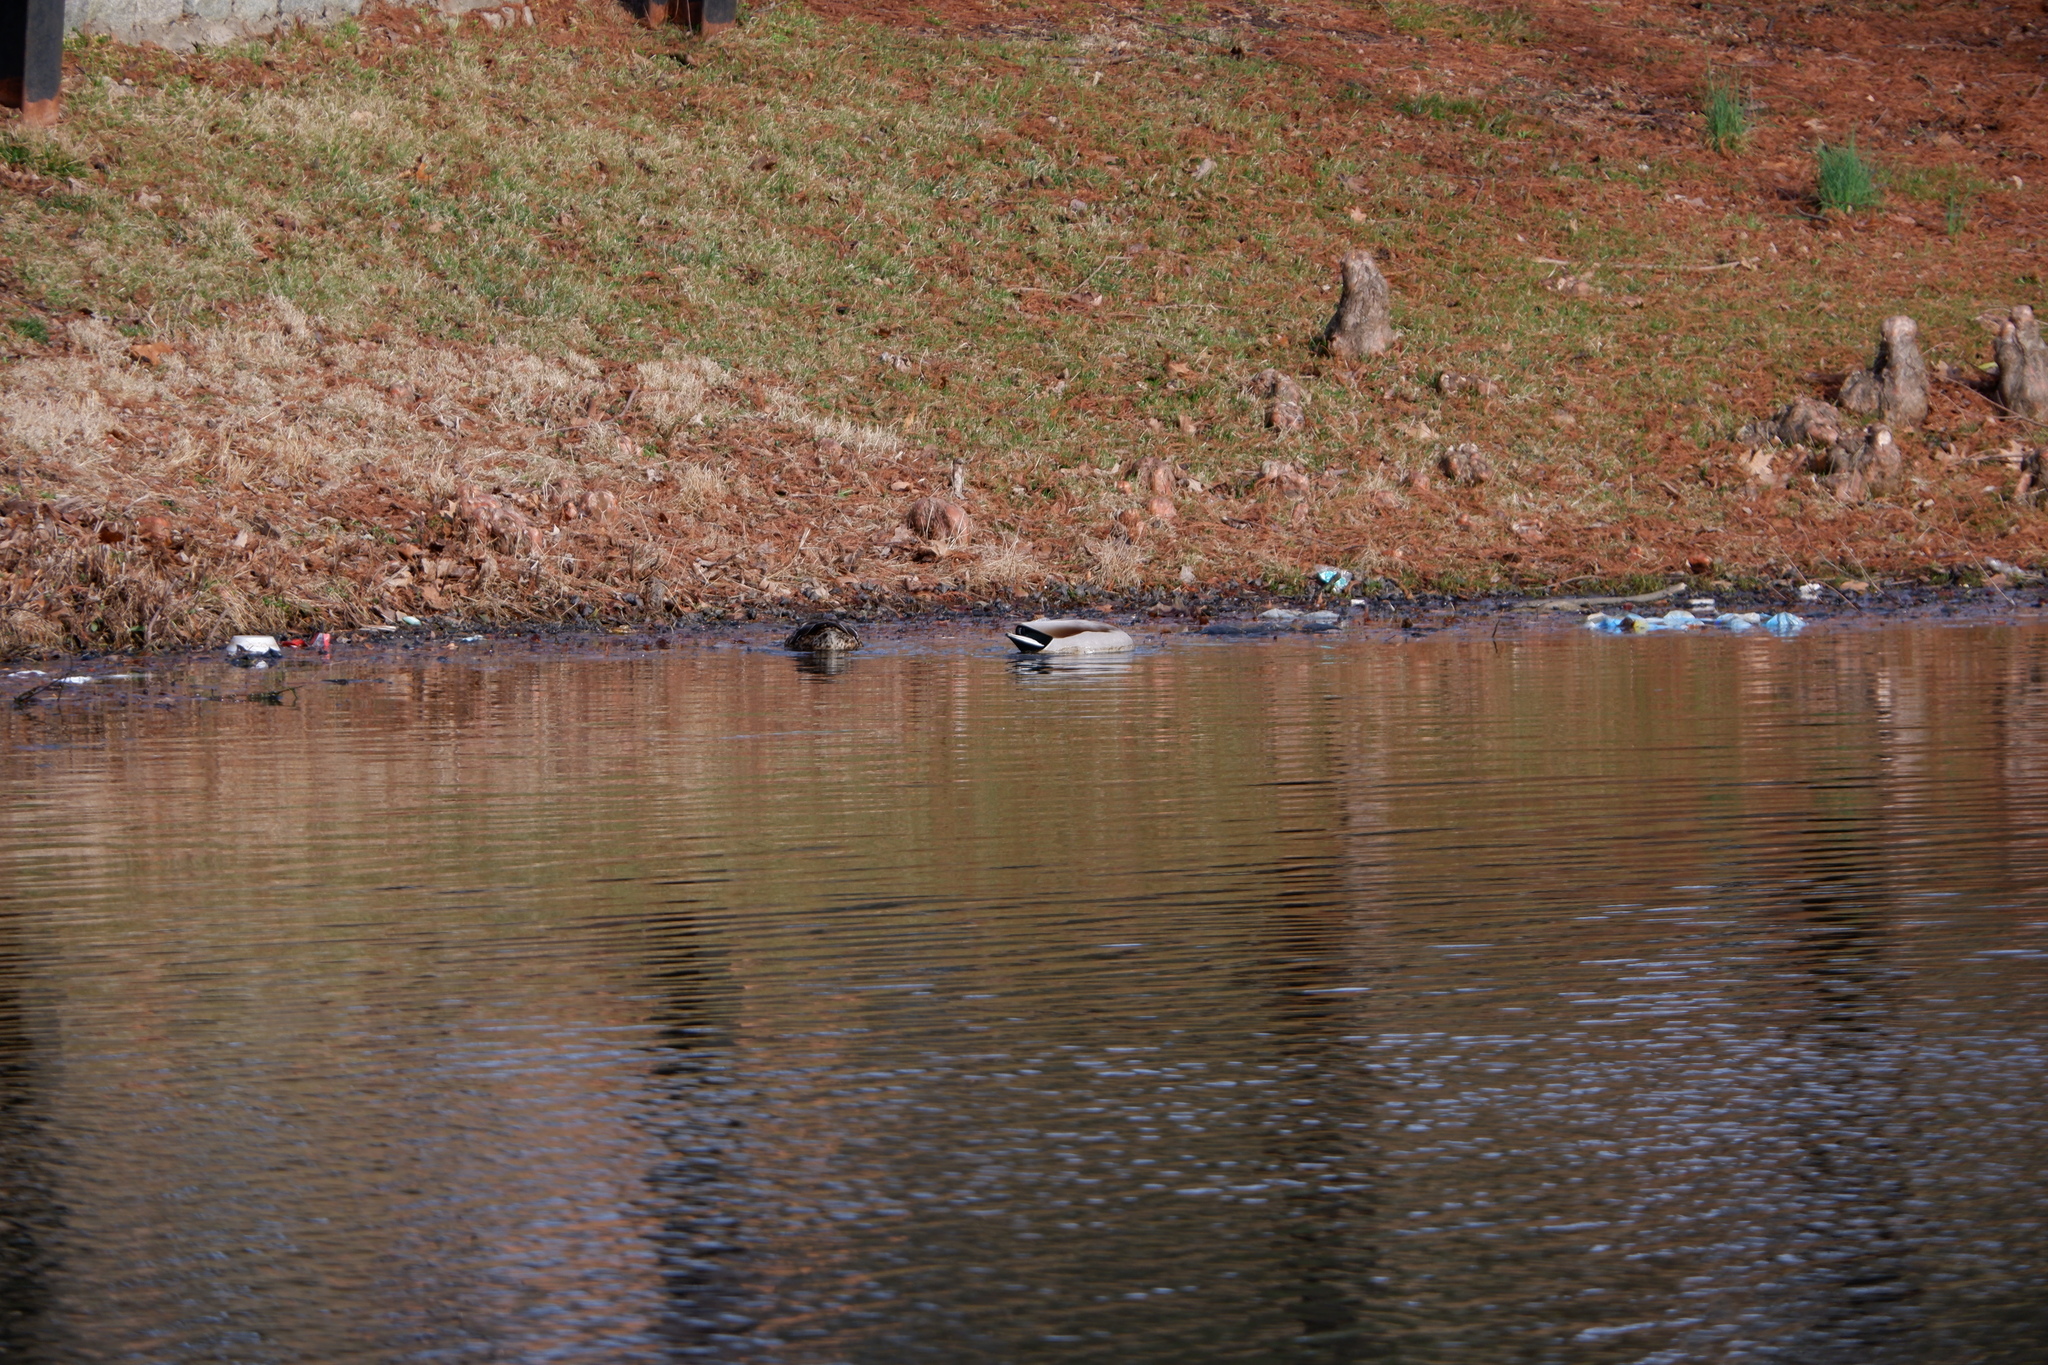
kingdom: Animalia
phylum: Chordata
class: Aves
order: Anseriformes
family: Anatidae
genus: Anas
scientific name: Anas platyrhynchos
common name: Mallard
